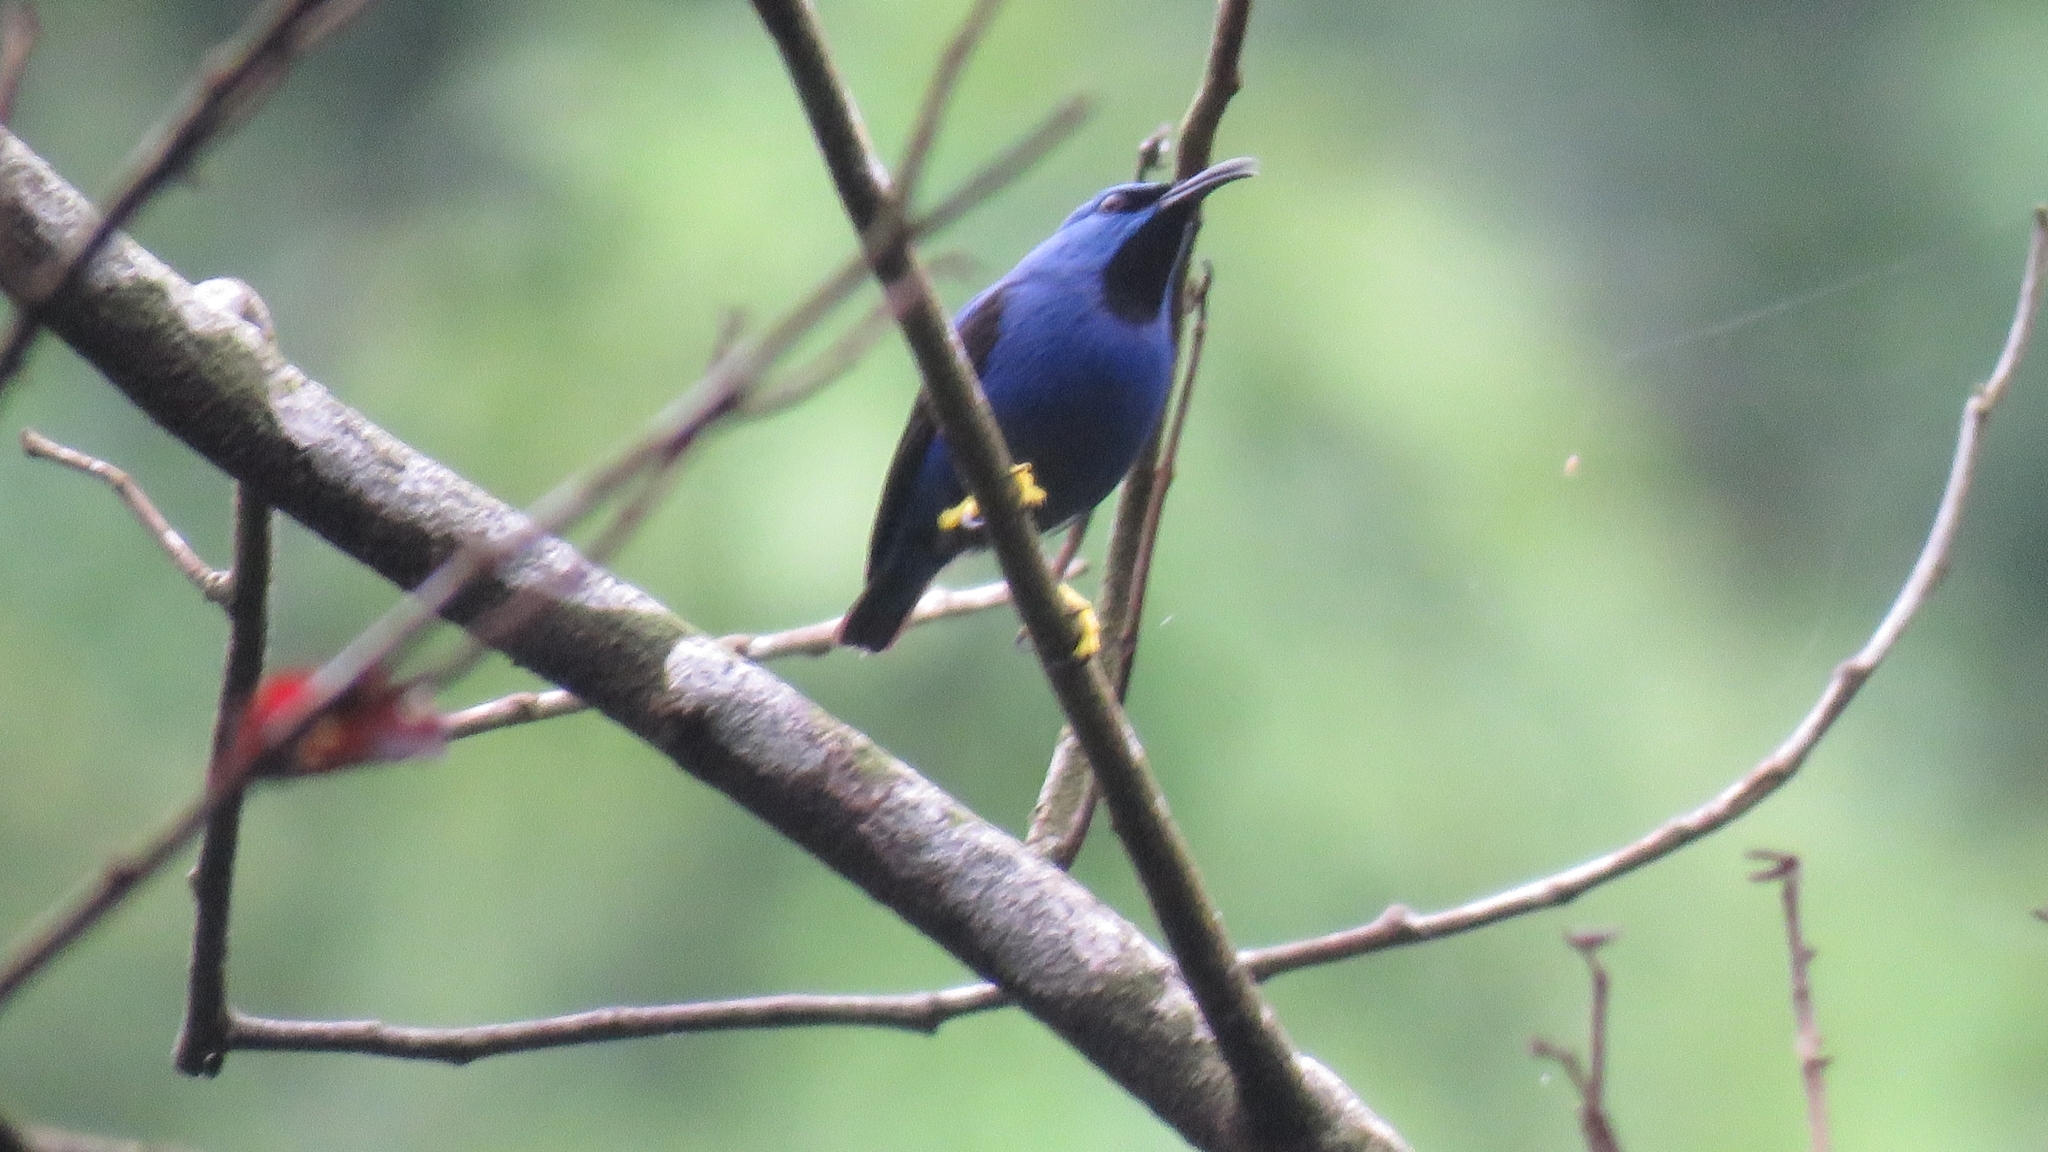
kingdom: Animalia
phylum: Chordata
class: Aves
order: Passeriformes
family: Thraupidae
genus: Cyanerpes
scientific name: Cyanerpes lucidus
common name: Shining honeycreeper
